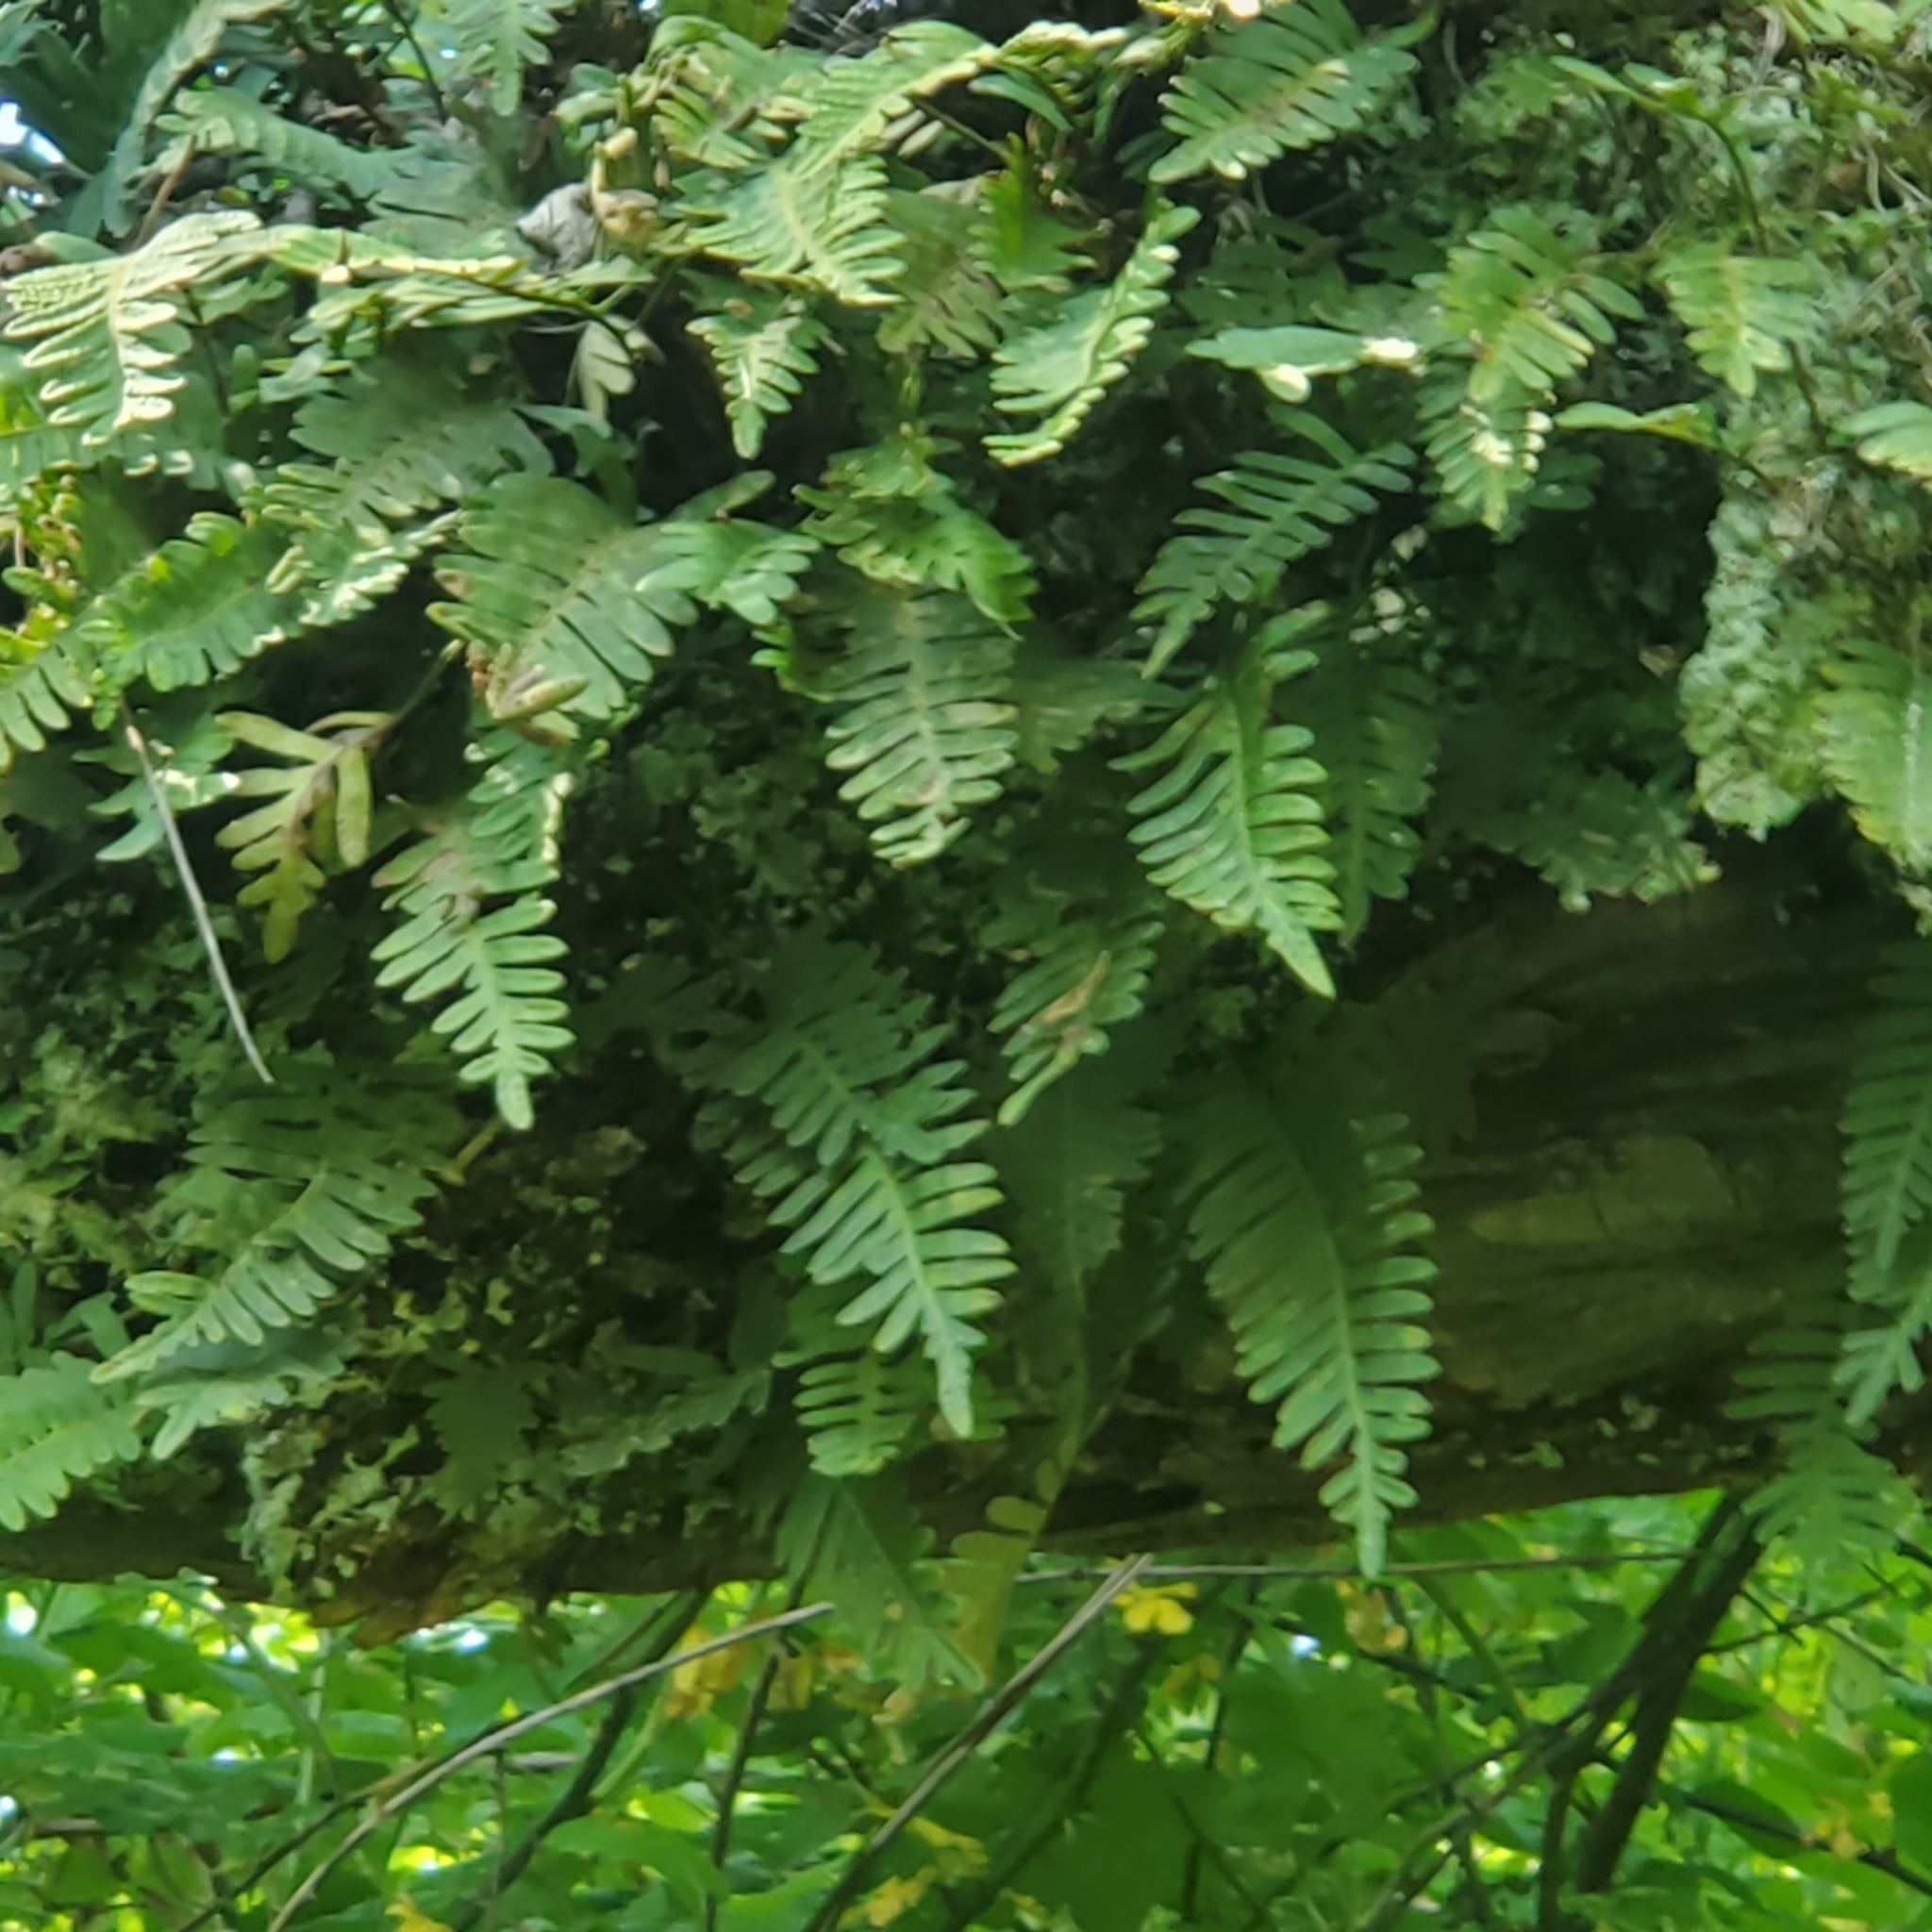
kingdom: Plantae
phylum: Tracheophyta
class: Polypodiopsida
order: Polypodiales
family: Polypodiaceae
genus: Pleopeltis
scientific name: Pleopeltis michauxiana
